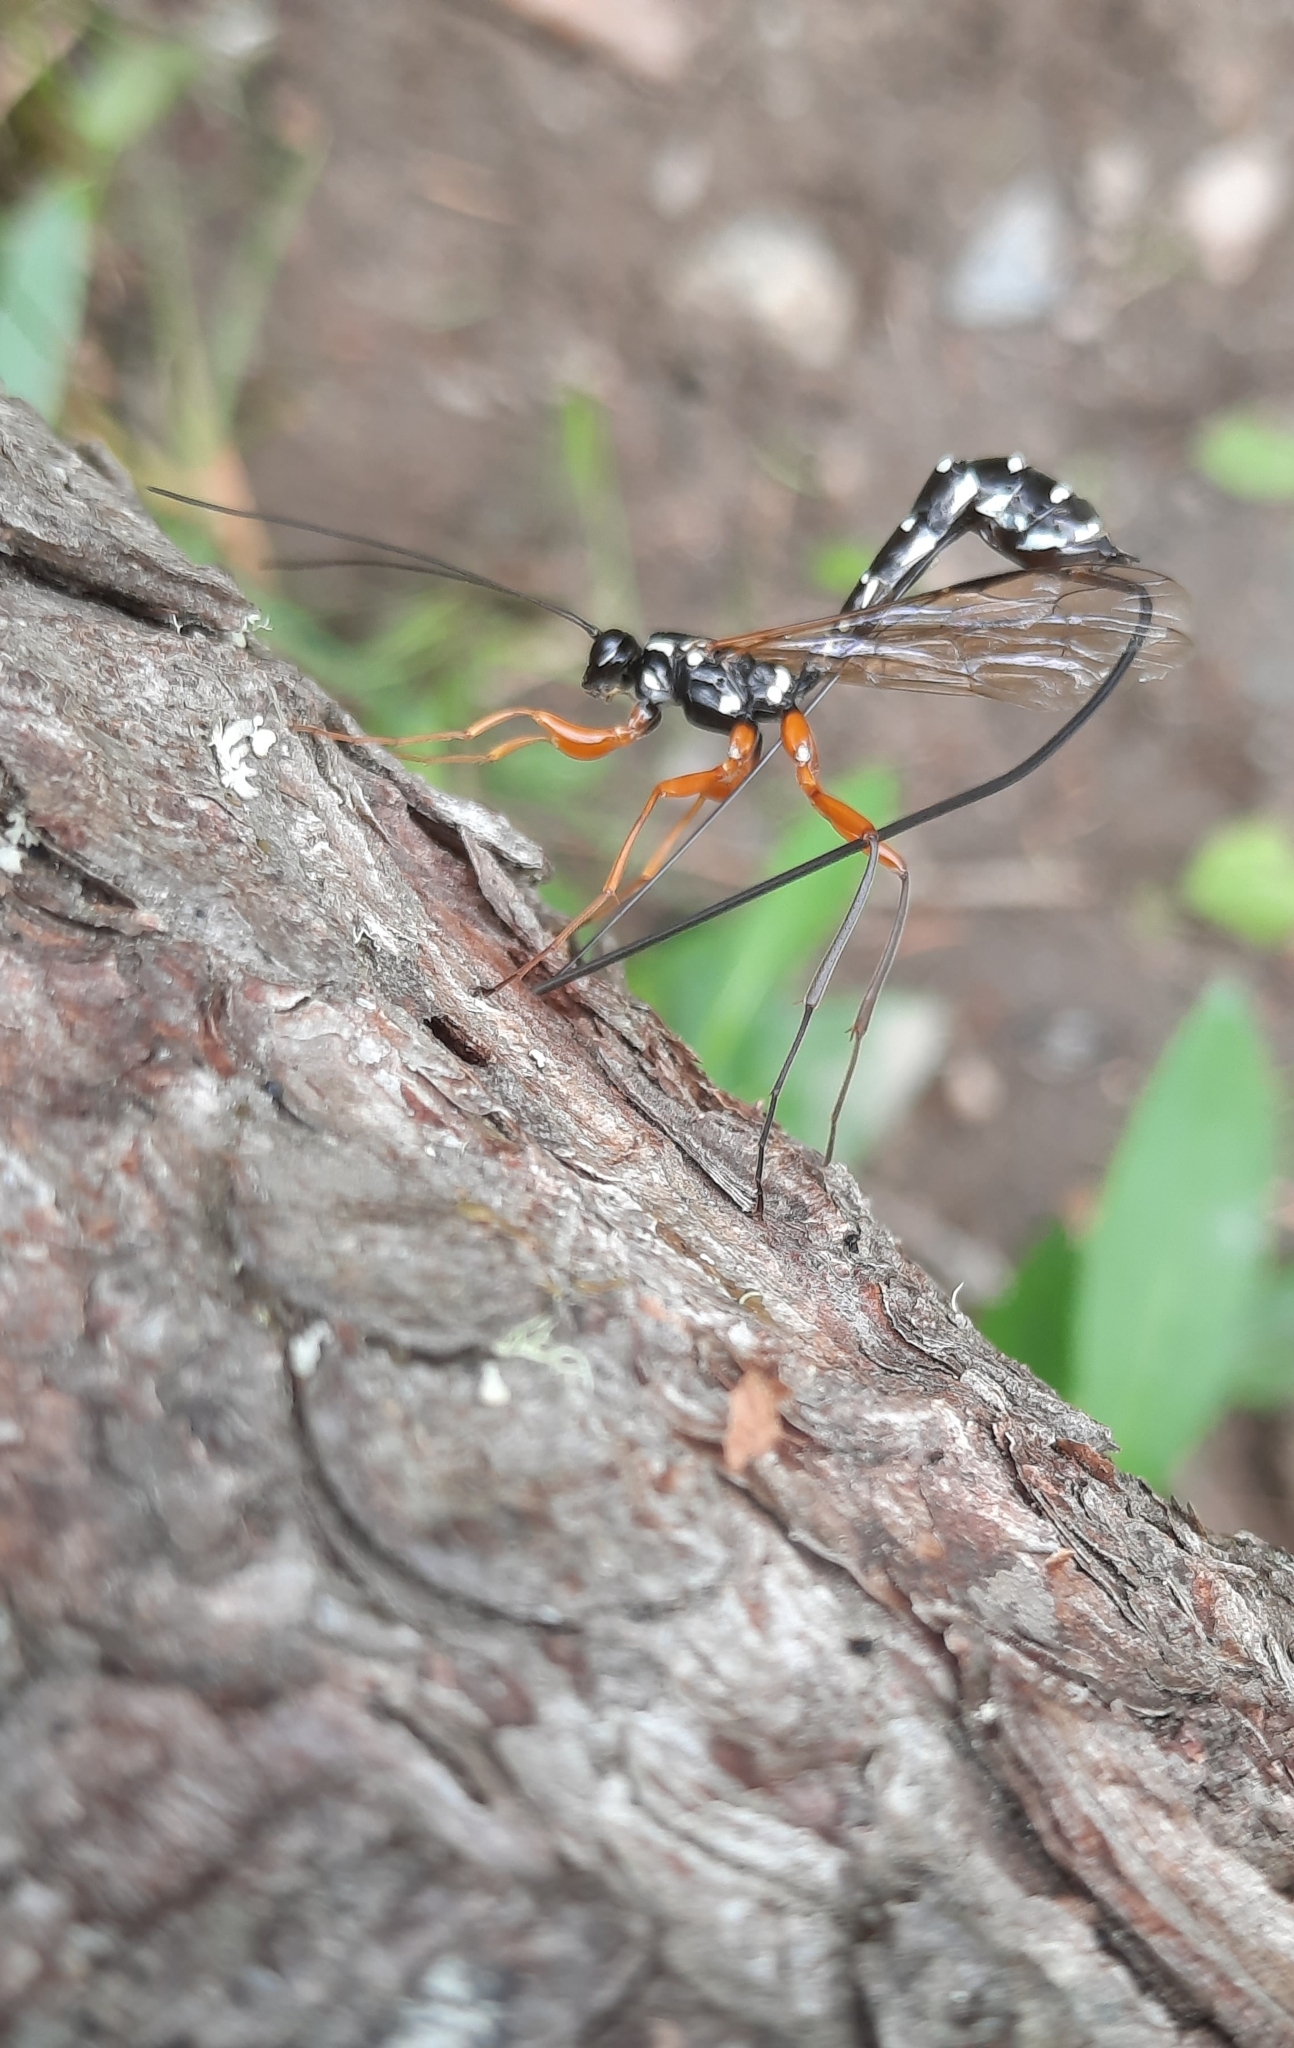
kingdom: Animalia
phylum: Arthropoda
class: Insecta
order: Hymenoptera
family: Ichneumonidae
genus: Rhyssa
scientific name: Rhyssa persuasoria
